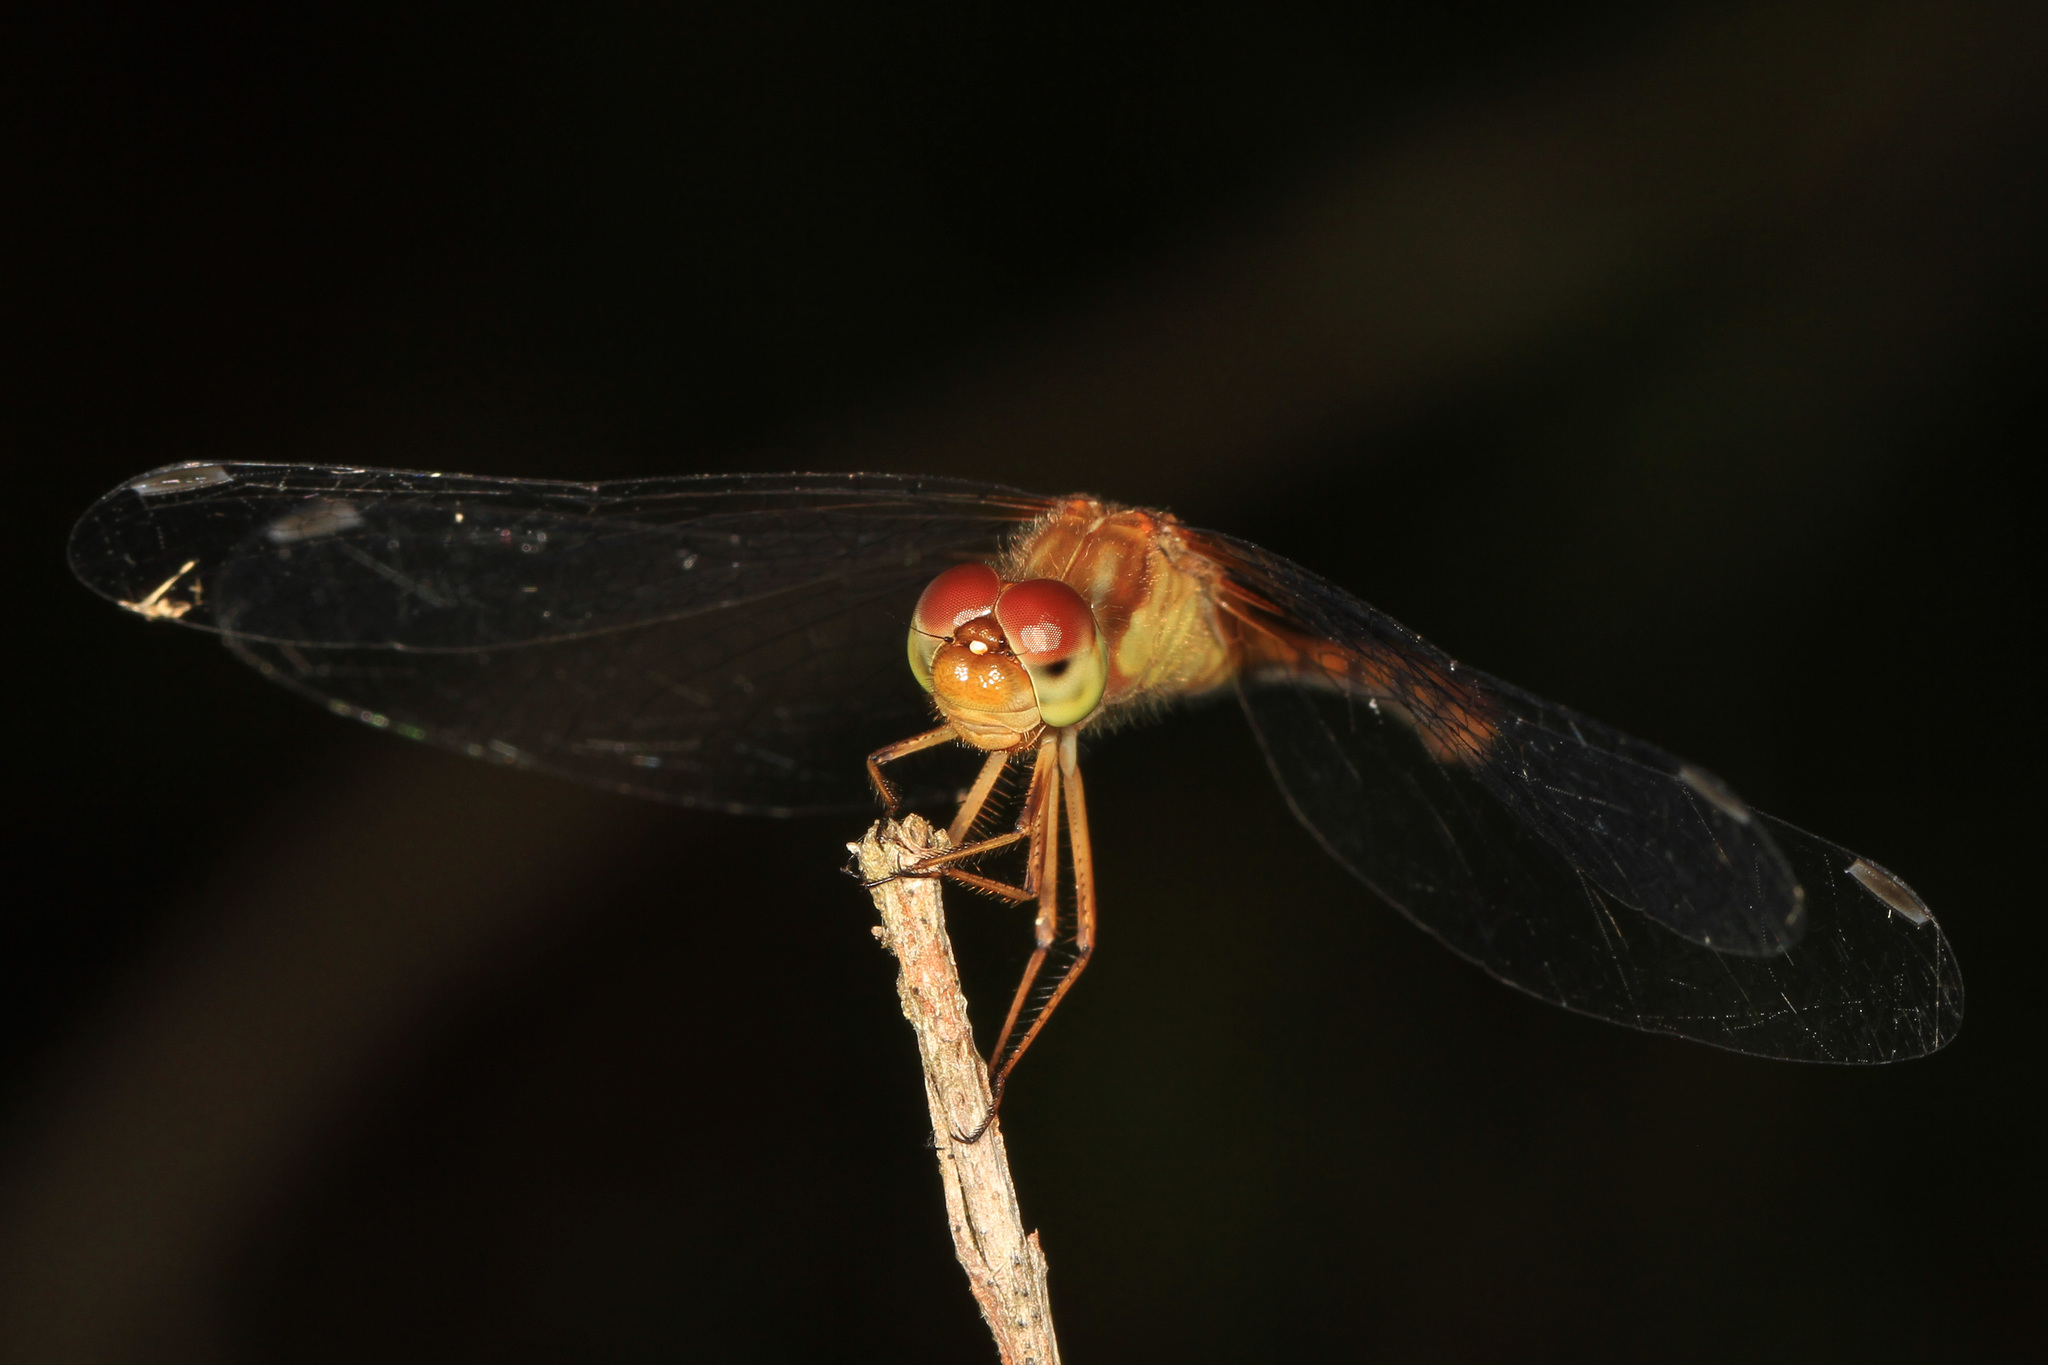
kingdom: Animalia
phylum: Arthropoda
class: Insecta
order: Odonata
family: Libellulidae
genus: Sympetrum
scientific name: Sympetrum vicinum
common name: Autumn meadowhawk
